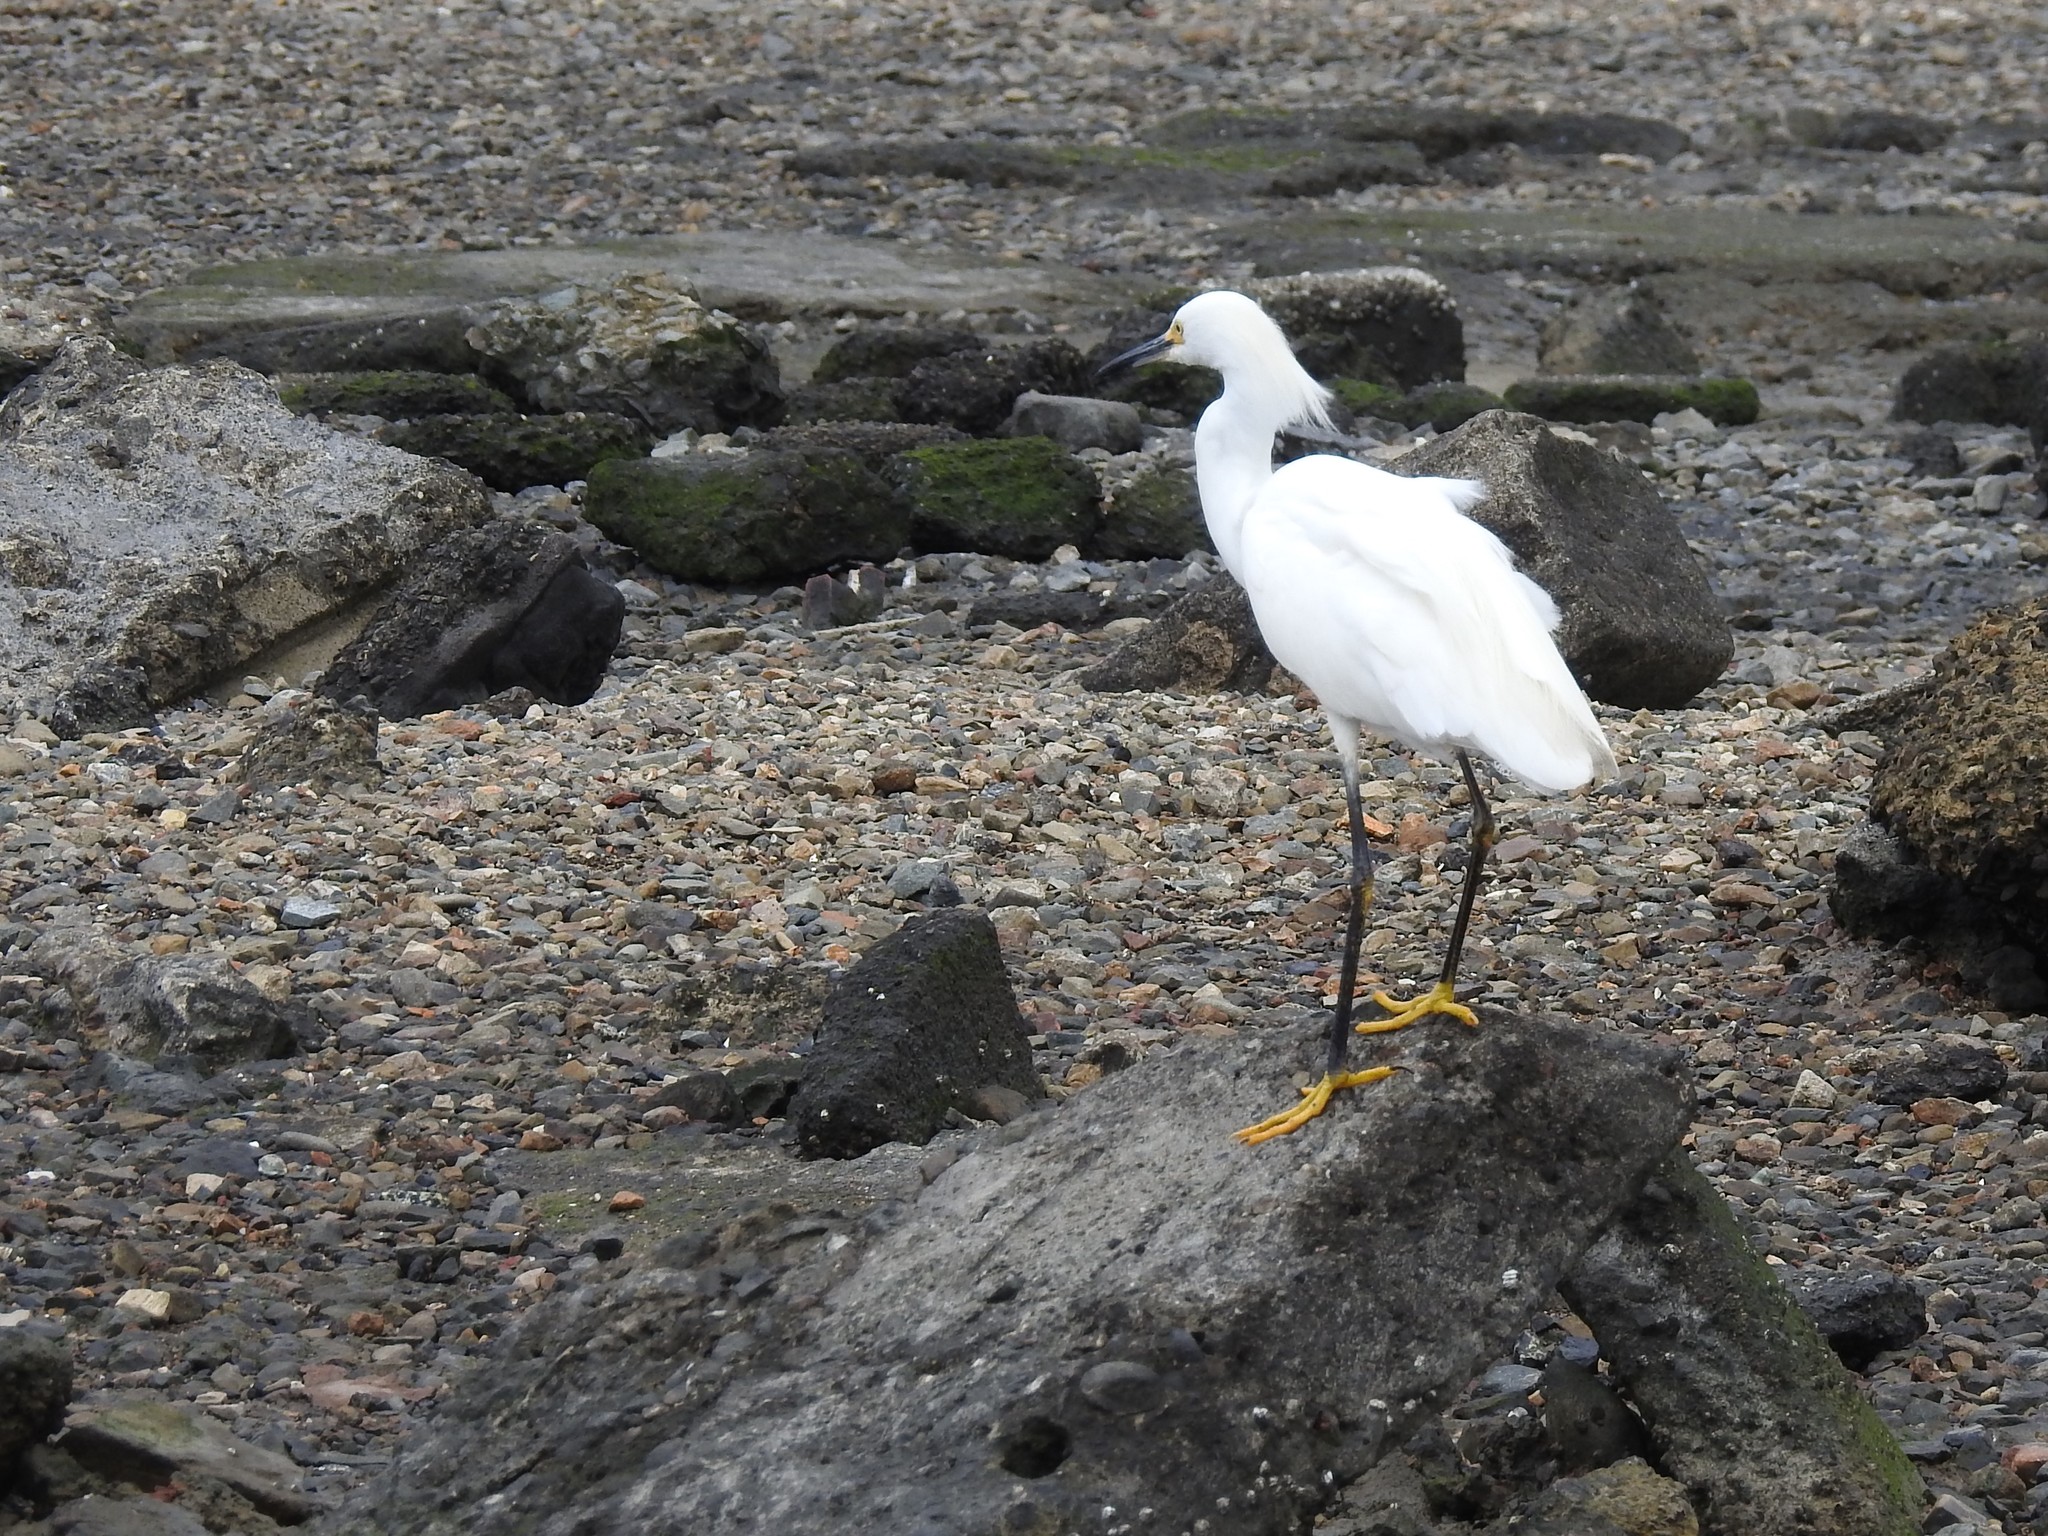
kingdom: Animalia
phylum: Chordata
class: Aves
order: Pelecaniformes
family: Ardeidae
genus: Egretta
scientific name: Egretta thula
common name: Snowy egret
